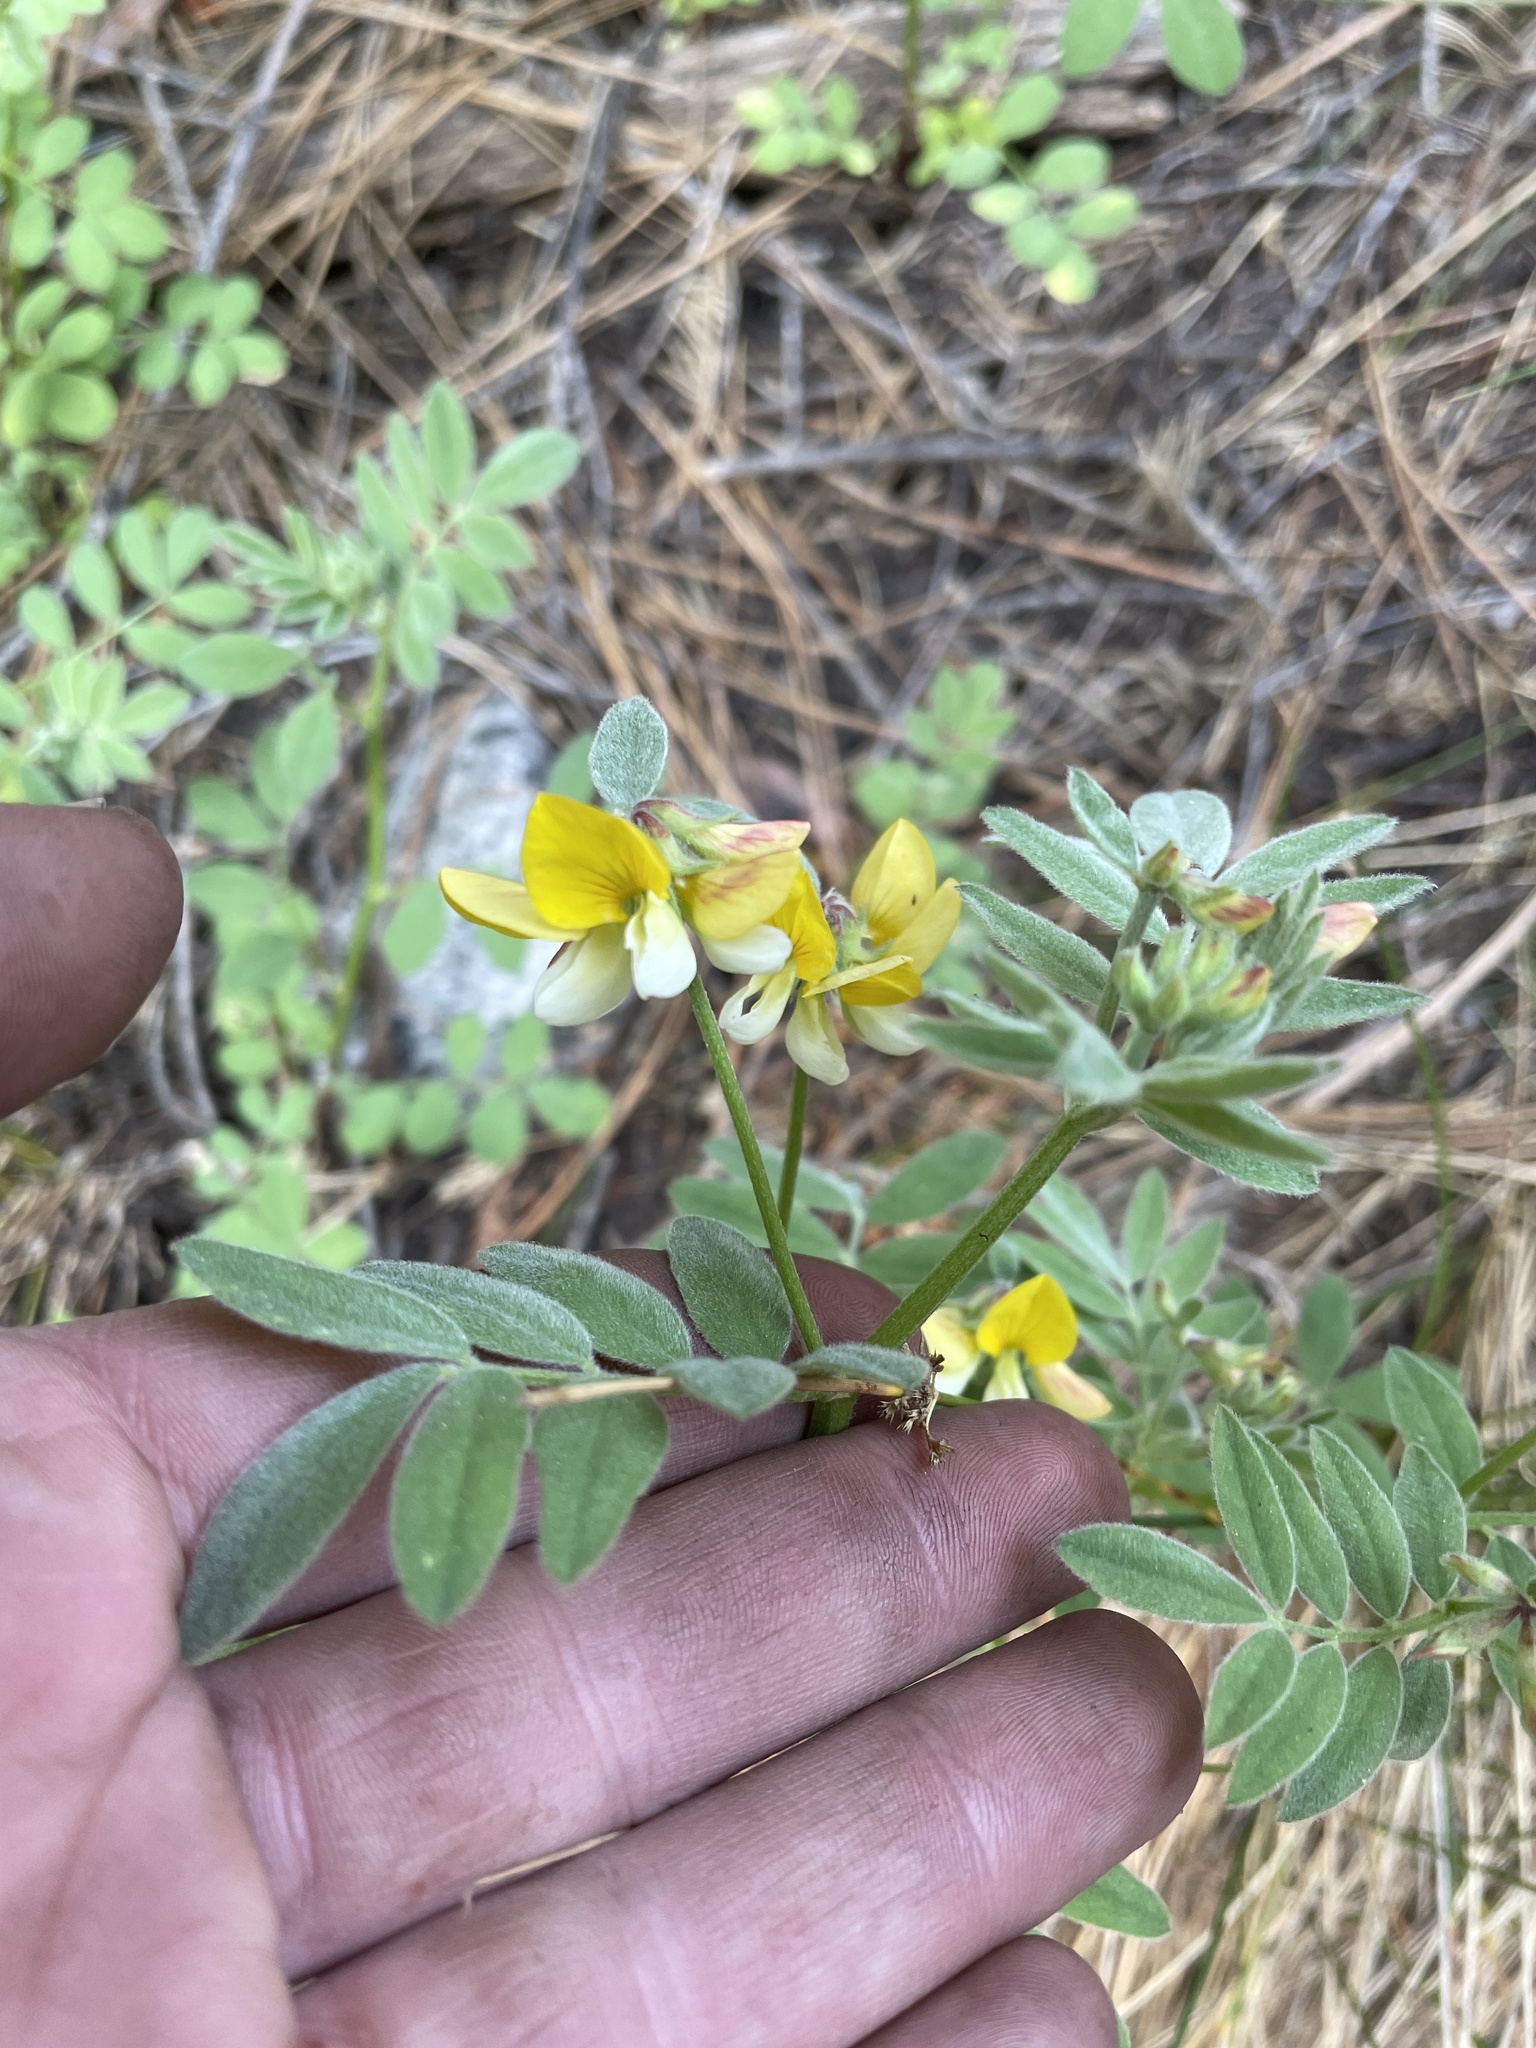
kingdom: Plantae
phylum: Tracheophyta
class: Magnoliopsida
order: Fabales
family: Fabaceae
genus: Hosackia
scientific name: Hosackia oblongifolia
